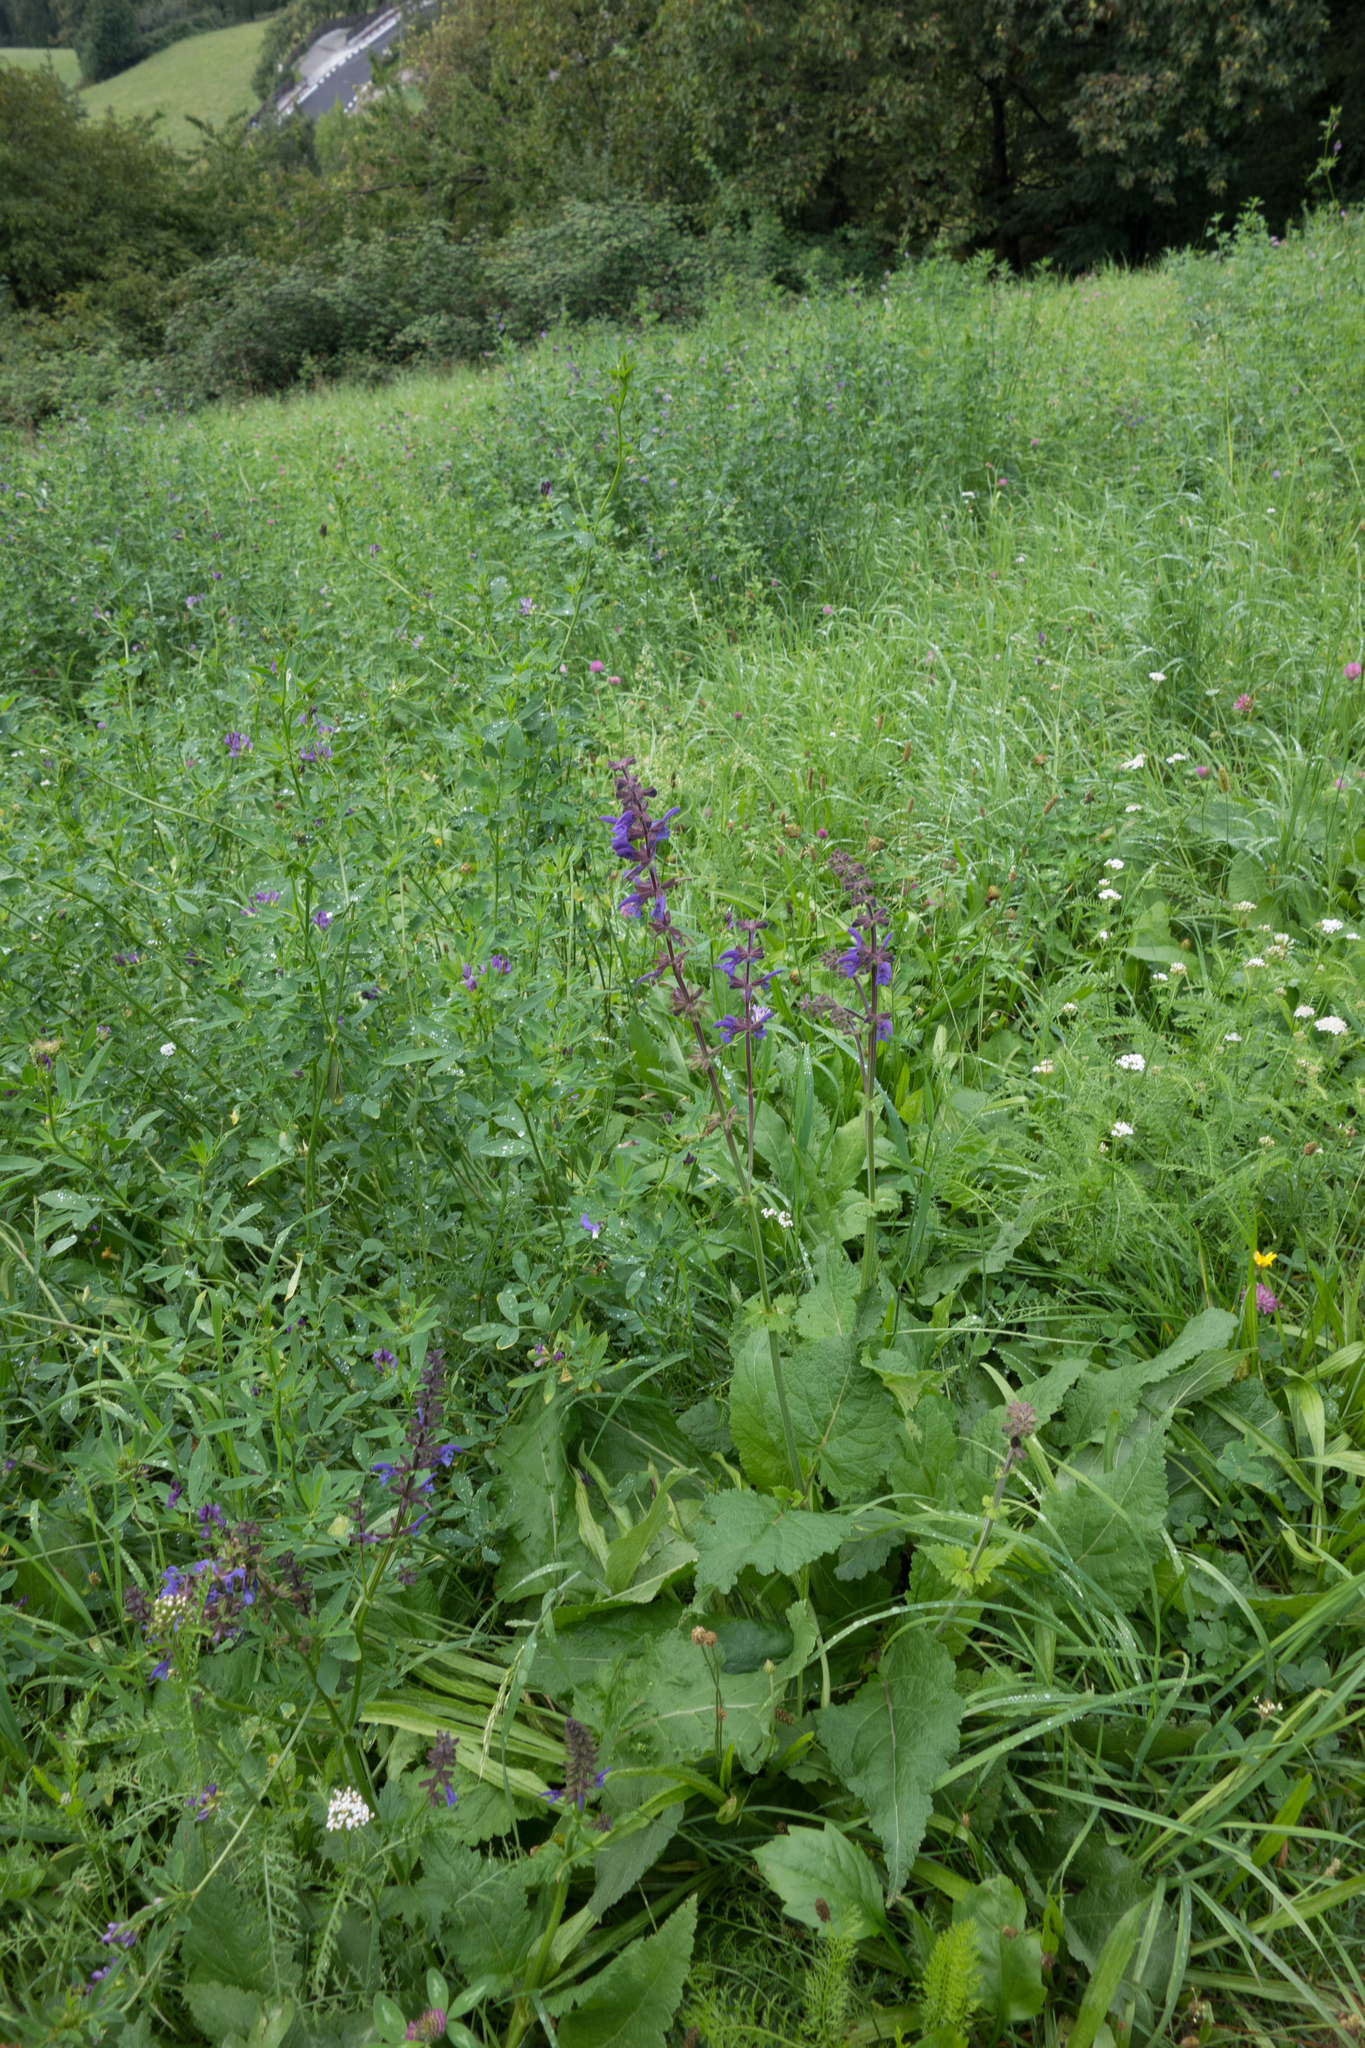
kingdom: Plantae
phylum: Tracheophyta
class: Magnoliopsida
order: Lamiales
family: Lamiaceae
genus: Salvia
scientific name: Salvia pratensis
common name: Meadow sage
